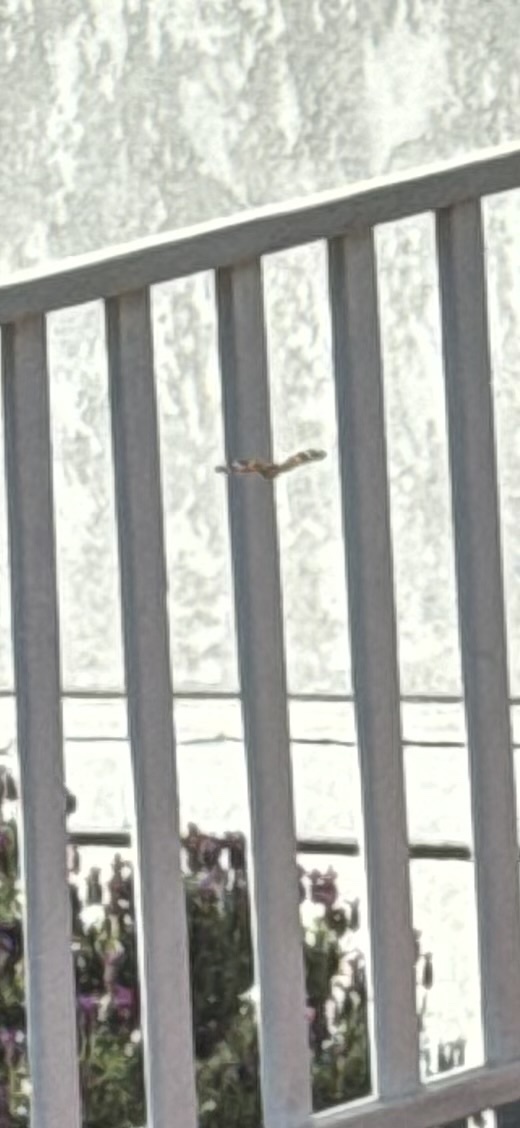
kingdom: Animalia
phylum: Arthropoda
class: Insecta
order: Lepidoptera
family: Nymphalidae
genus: Vanessa
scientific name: Vanessa cardui
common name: Painted lady
